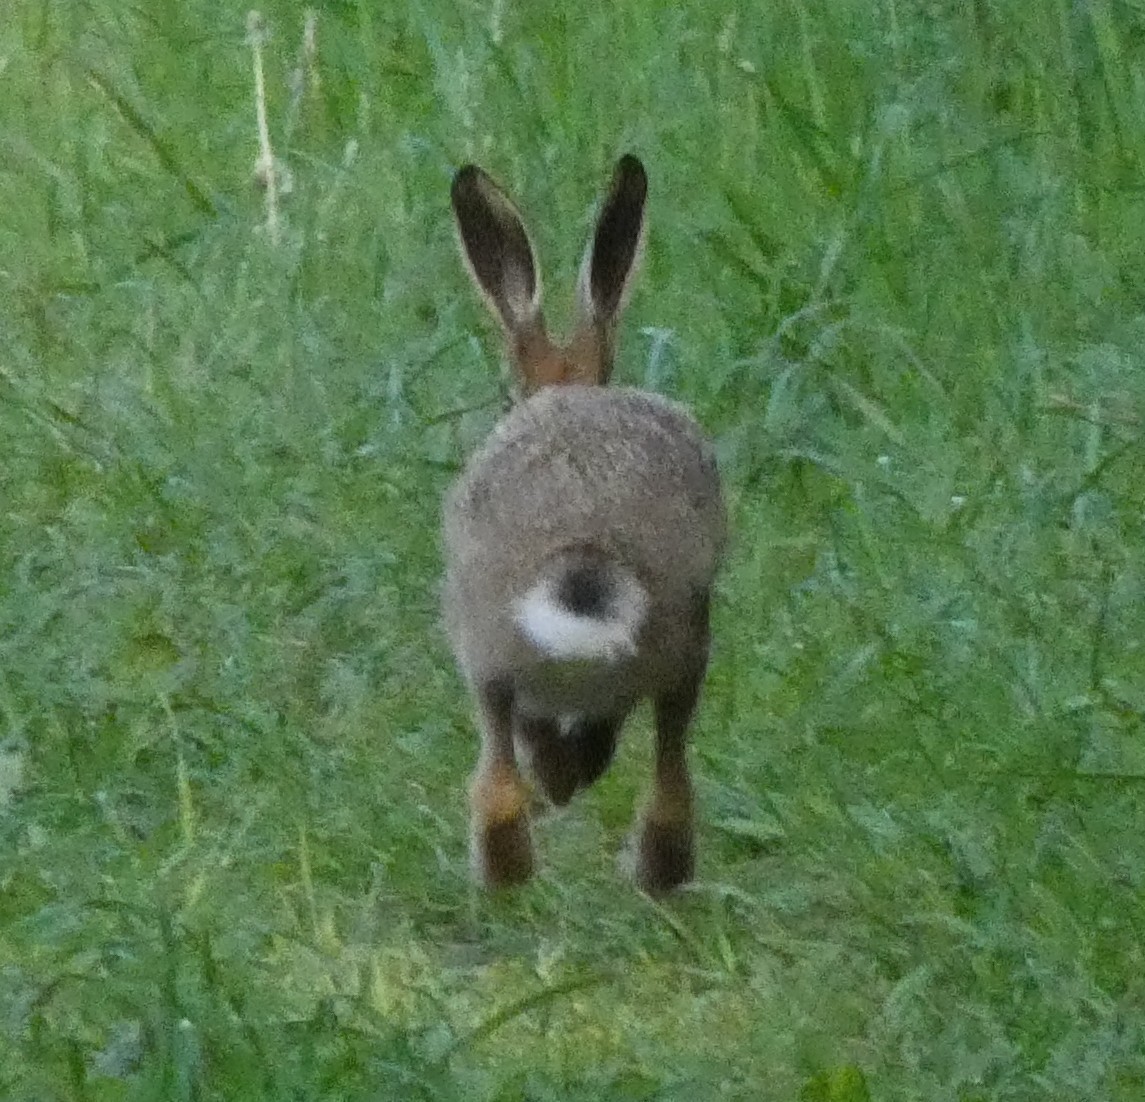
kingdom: Animalia
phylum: Chordata
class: Mammalia
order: Lagomorpha
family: Leporidae
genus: Lepus
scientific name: Lepus europaeus
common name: European hare
